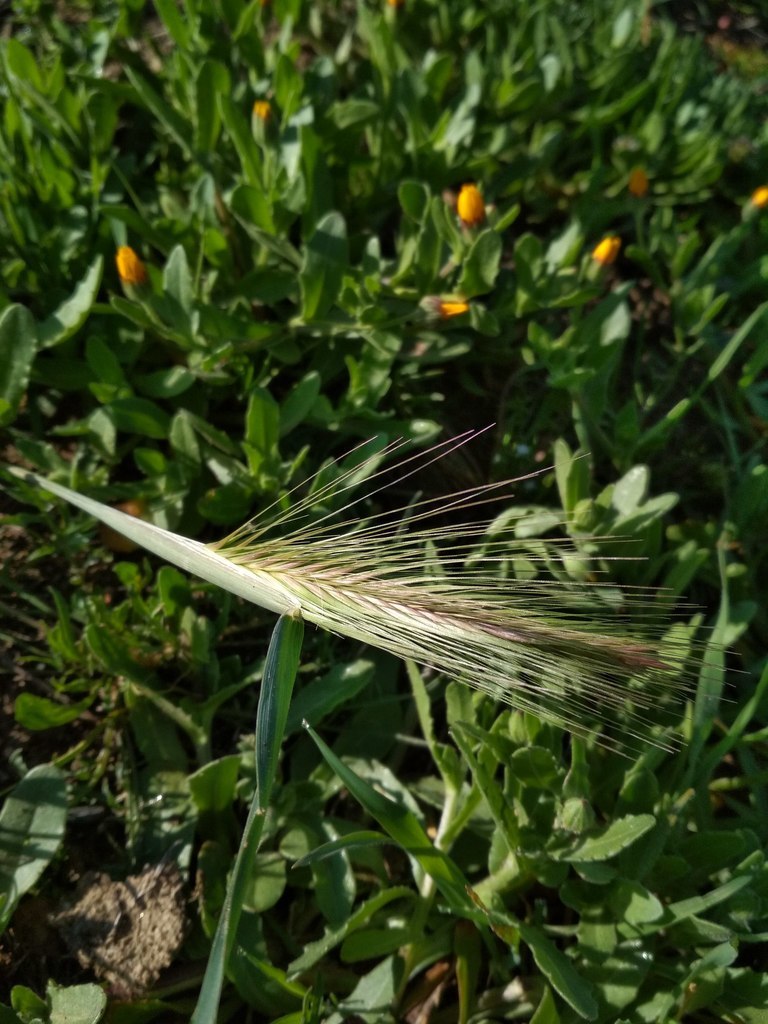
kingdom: Plantae
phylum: Tracheophyta
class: Liliopsida
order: Poales
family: Poaceae
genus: Hordeum
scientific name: Hordeum murinum
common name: Wall barley
